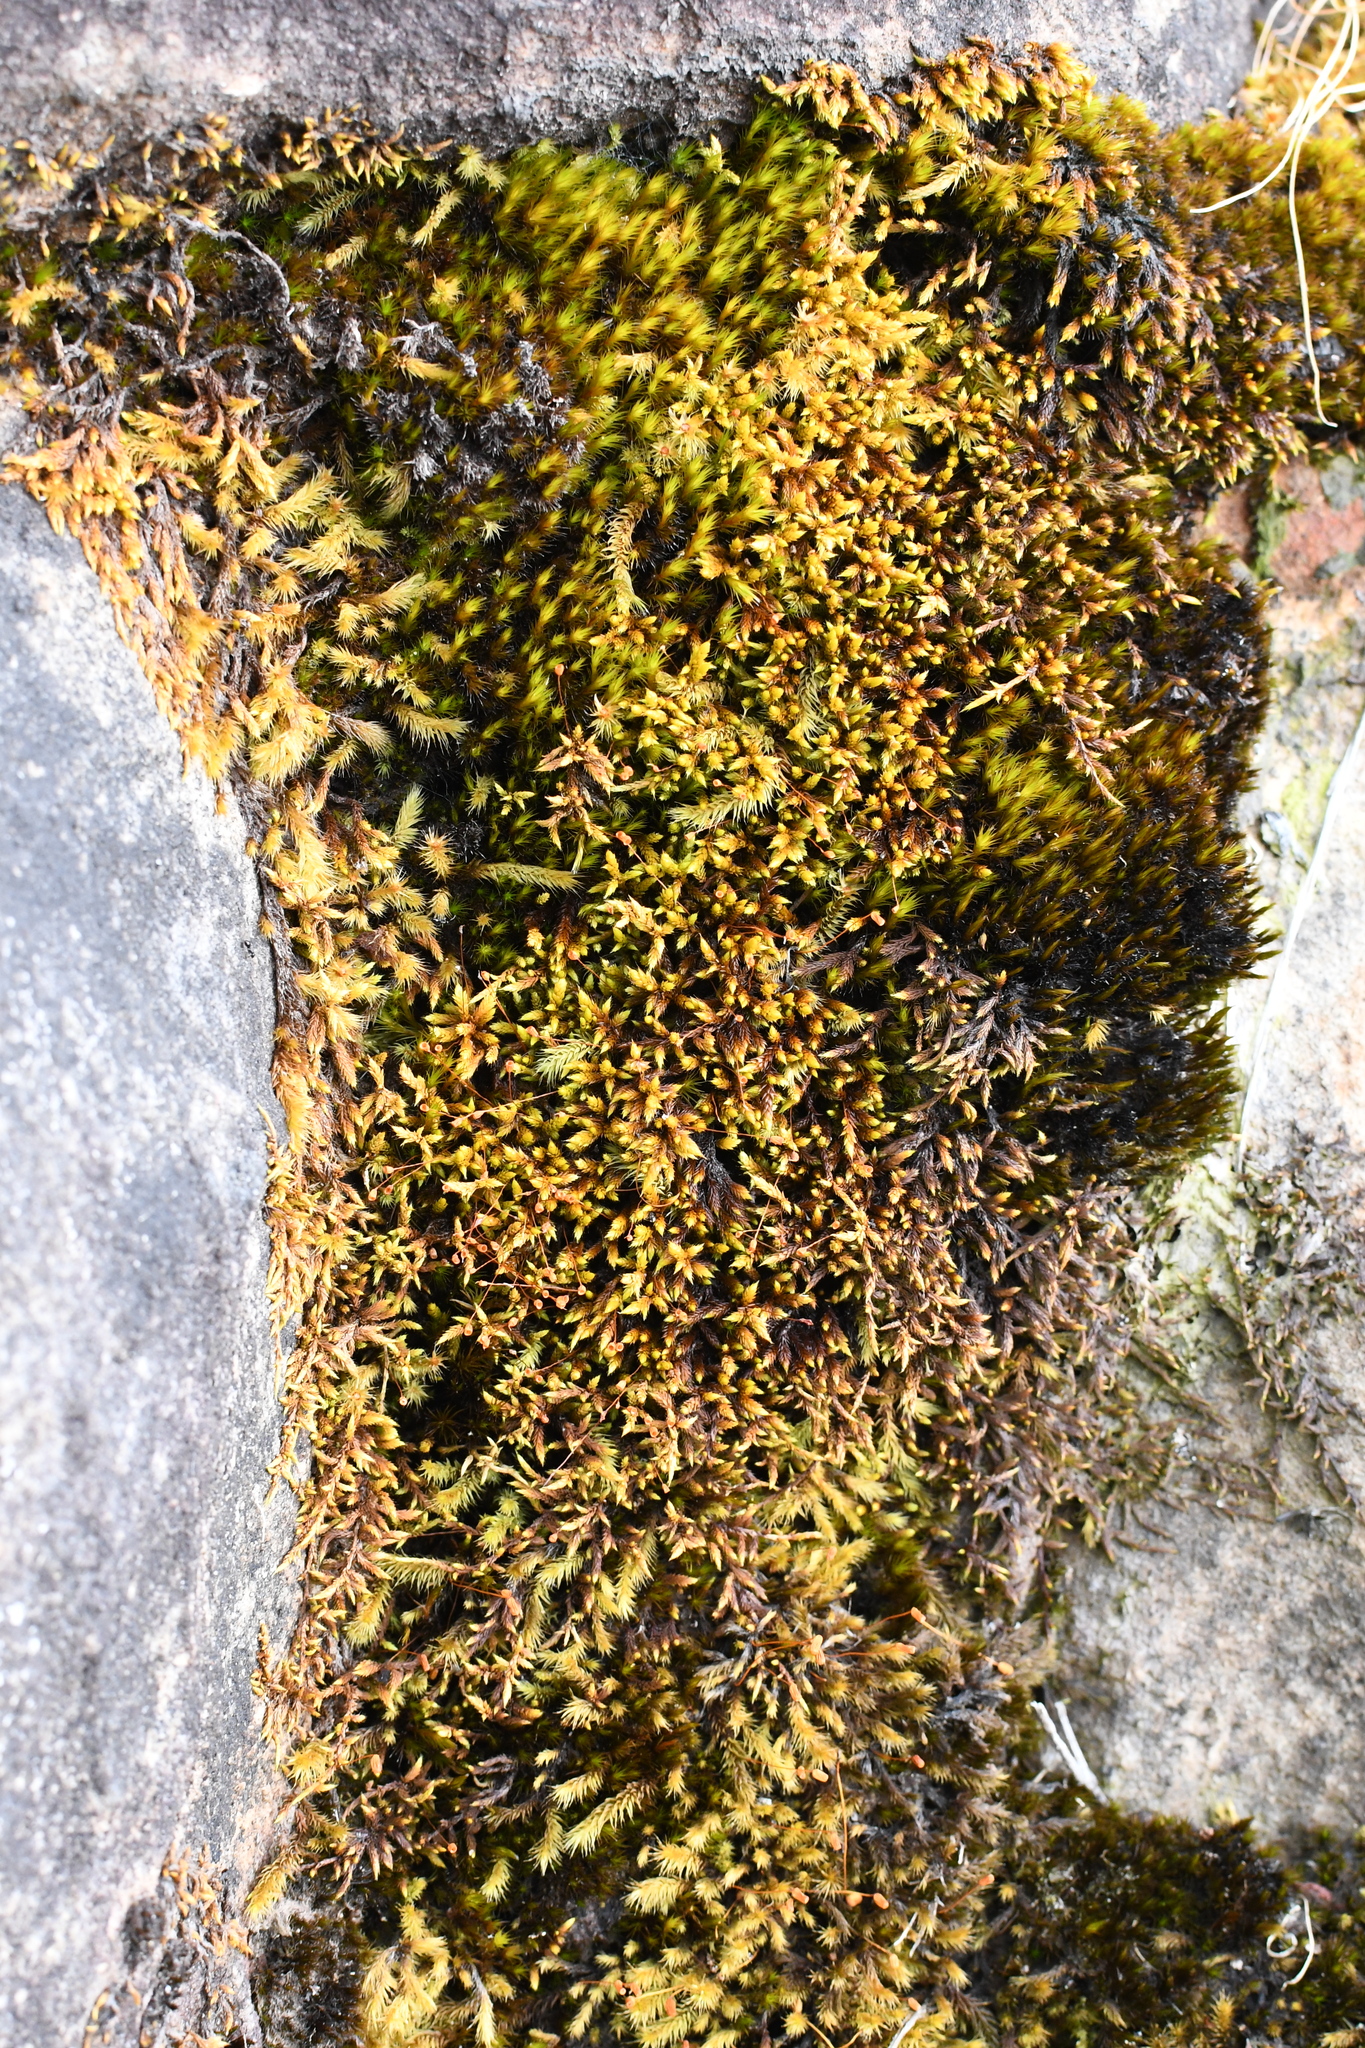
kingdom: Plantae
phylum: Bryophyta
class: Bryopsida
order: Hedwigiales
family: Hedwigiaceae
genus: Rhacocarpus
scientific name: Rhacocarpus purpurascens
